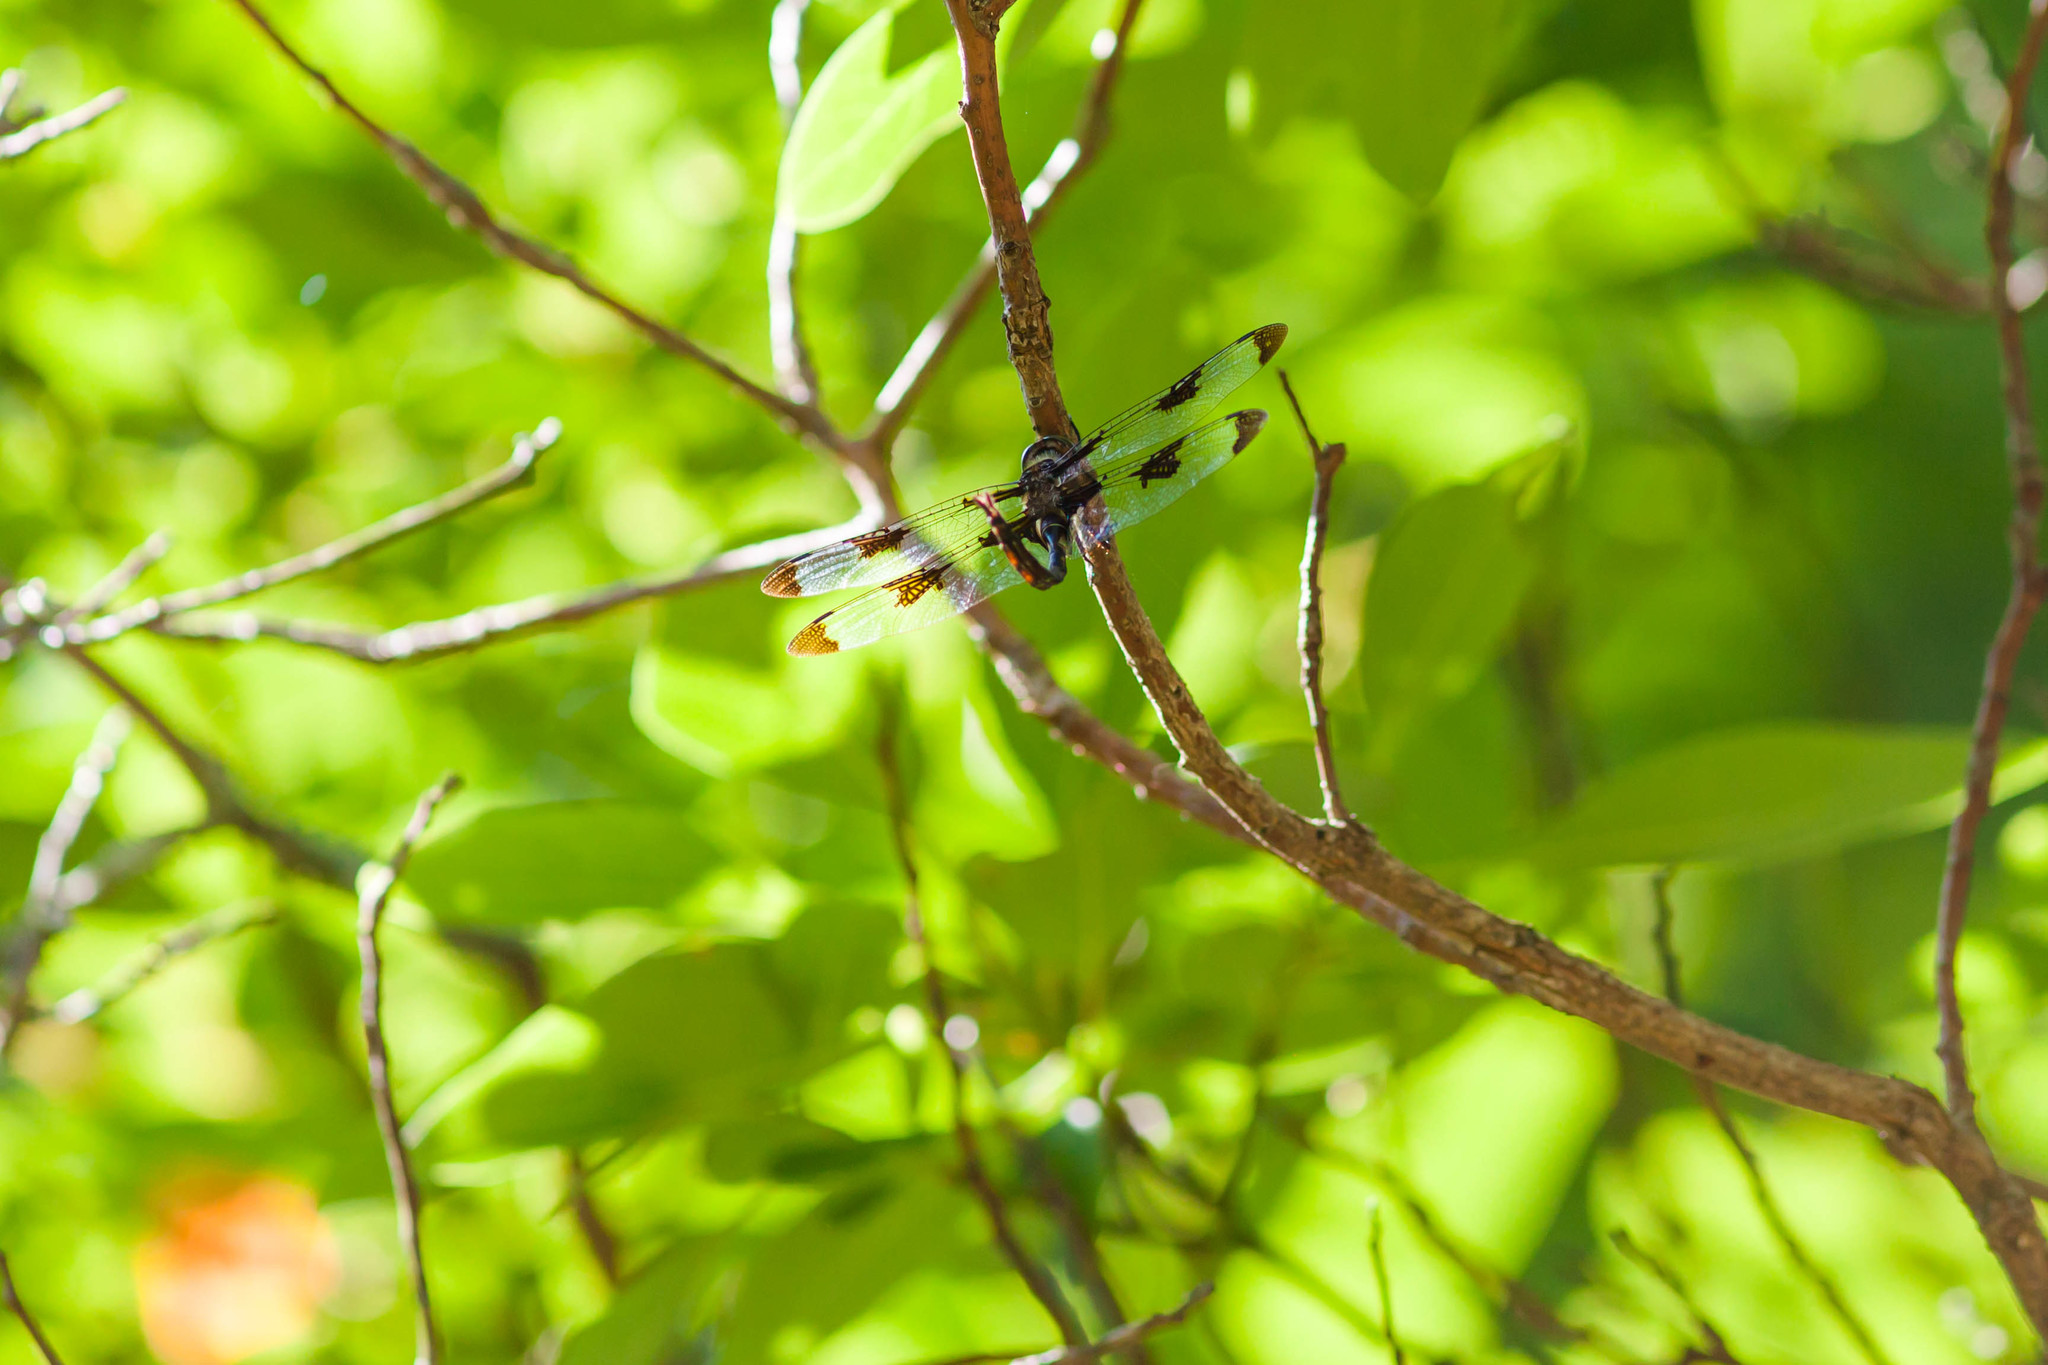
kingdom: Animalia
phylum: Arthropoda
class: Insecta
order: Odonata
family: Corduliidae
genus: Epitheca
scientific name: Epitheca princeps
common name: Prince baskettail
